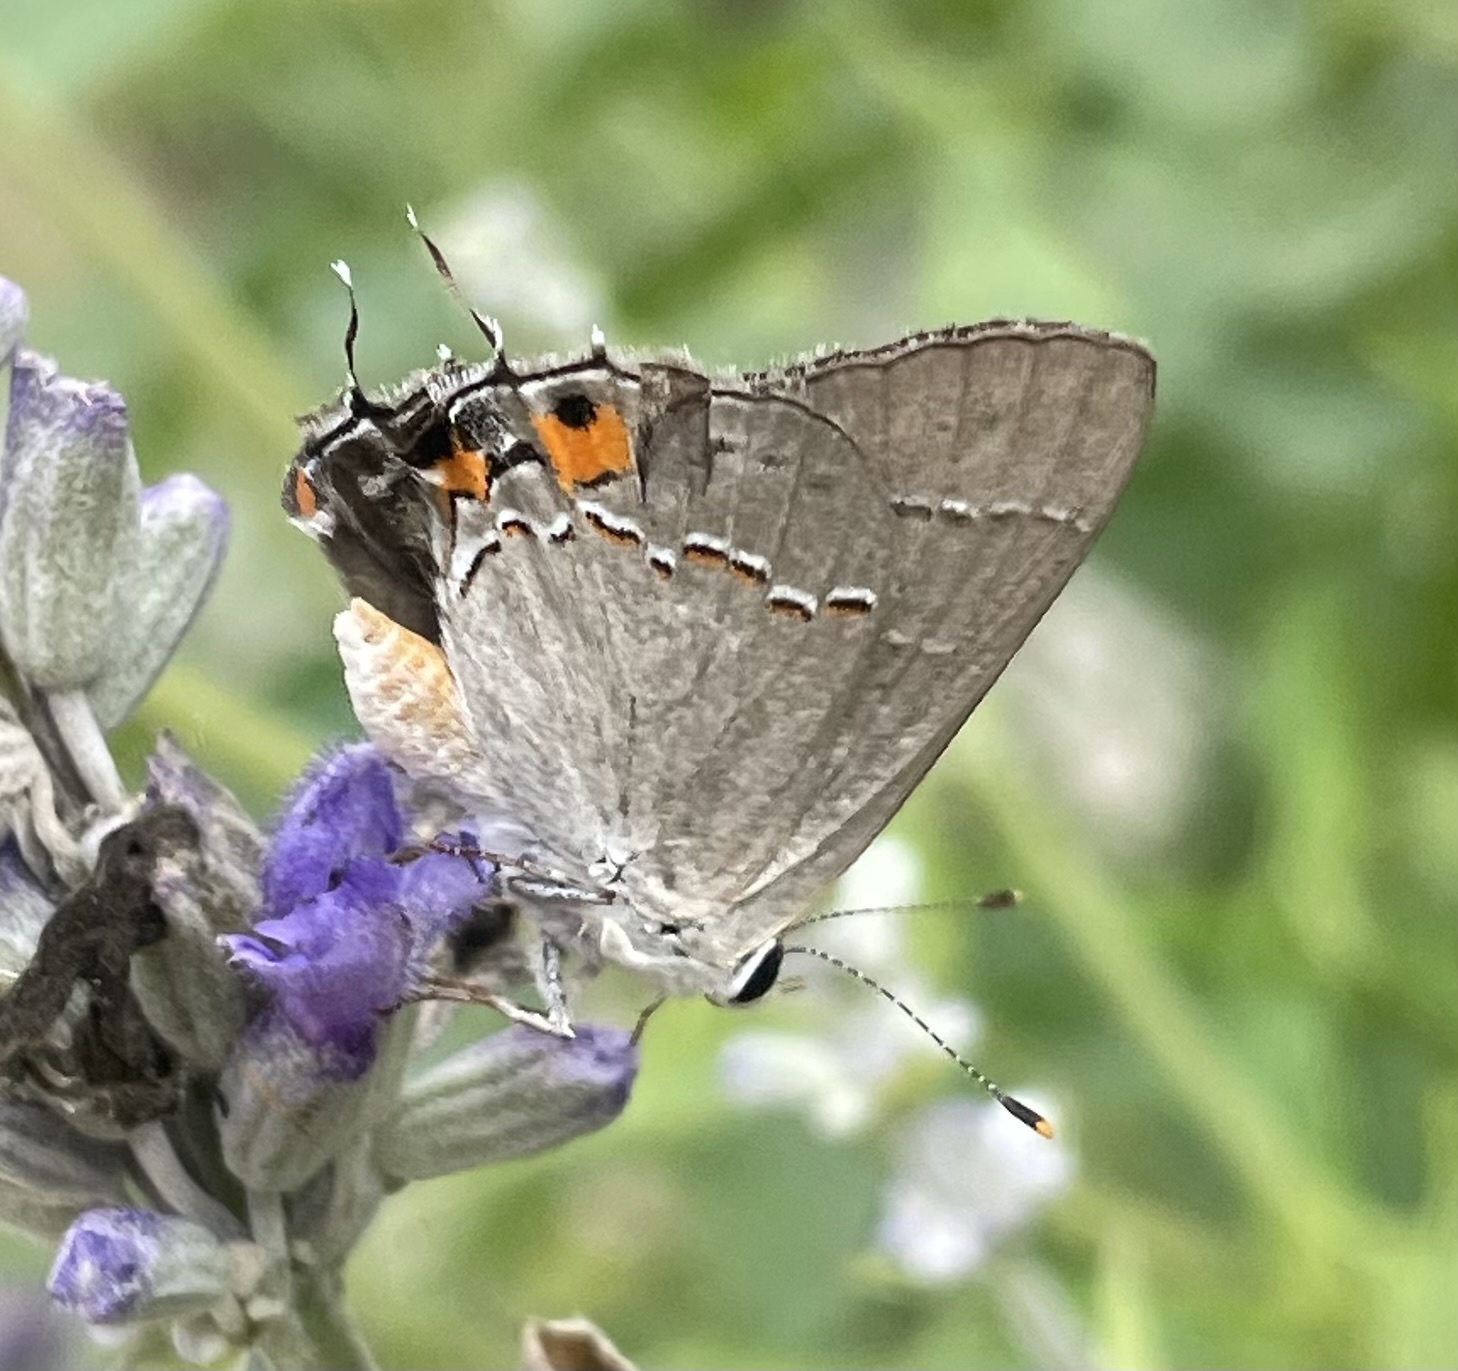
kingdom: Animalia
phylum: Arthropoda
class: Insecta
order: Lepidoptera
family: Lycaenidae
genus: Strymon
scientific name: Strymon melinus
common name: Gray hairstreak
